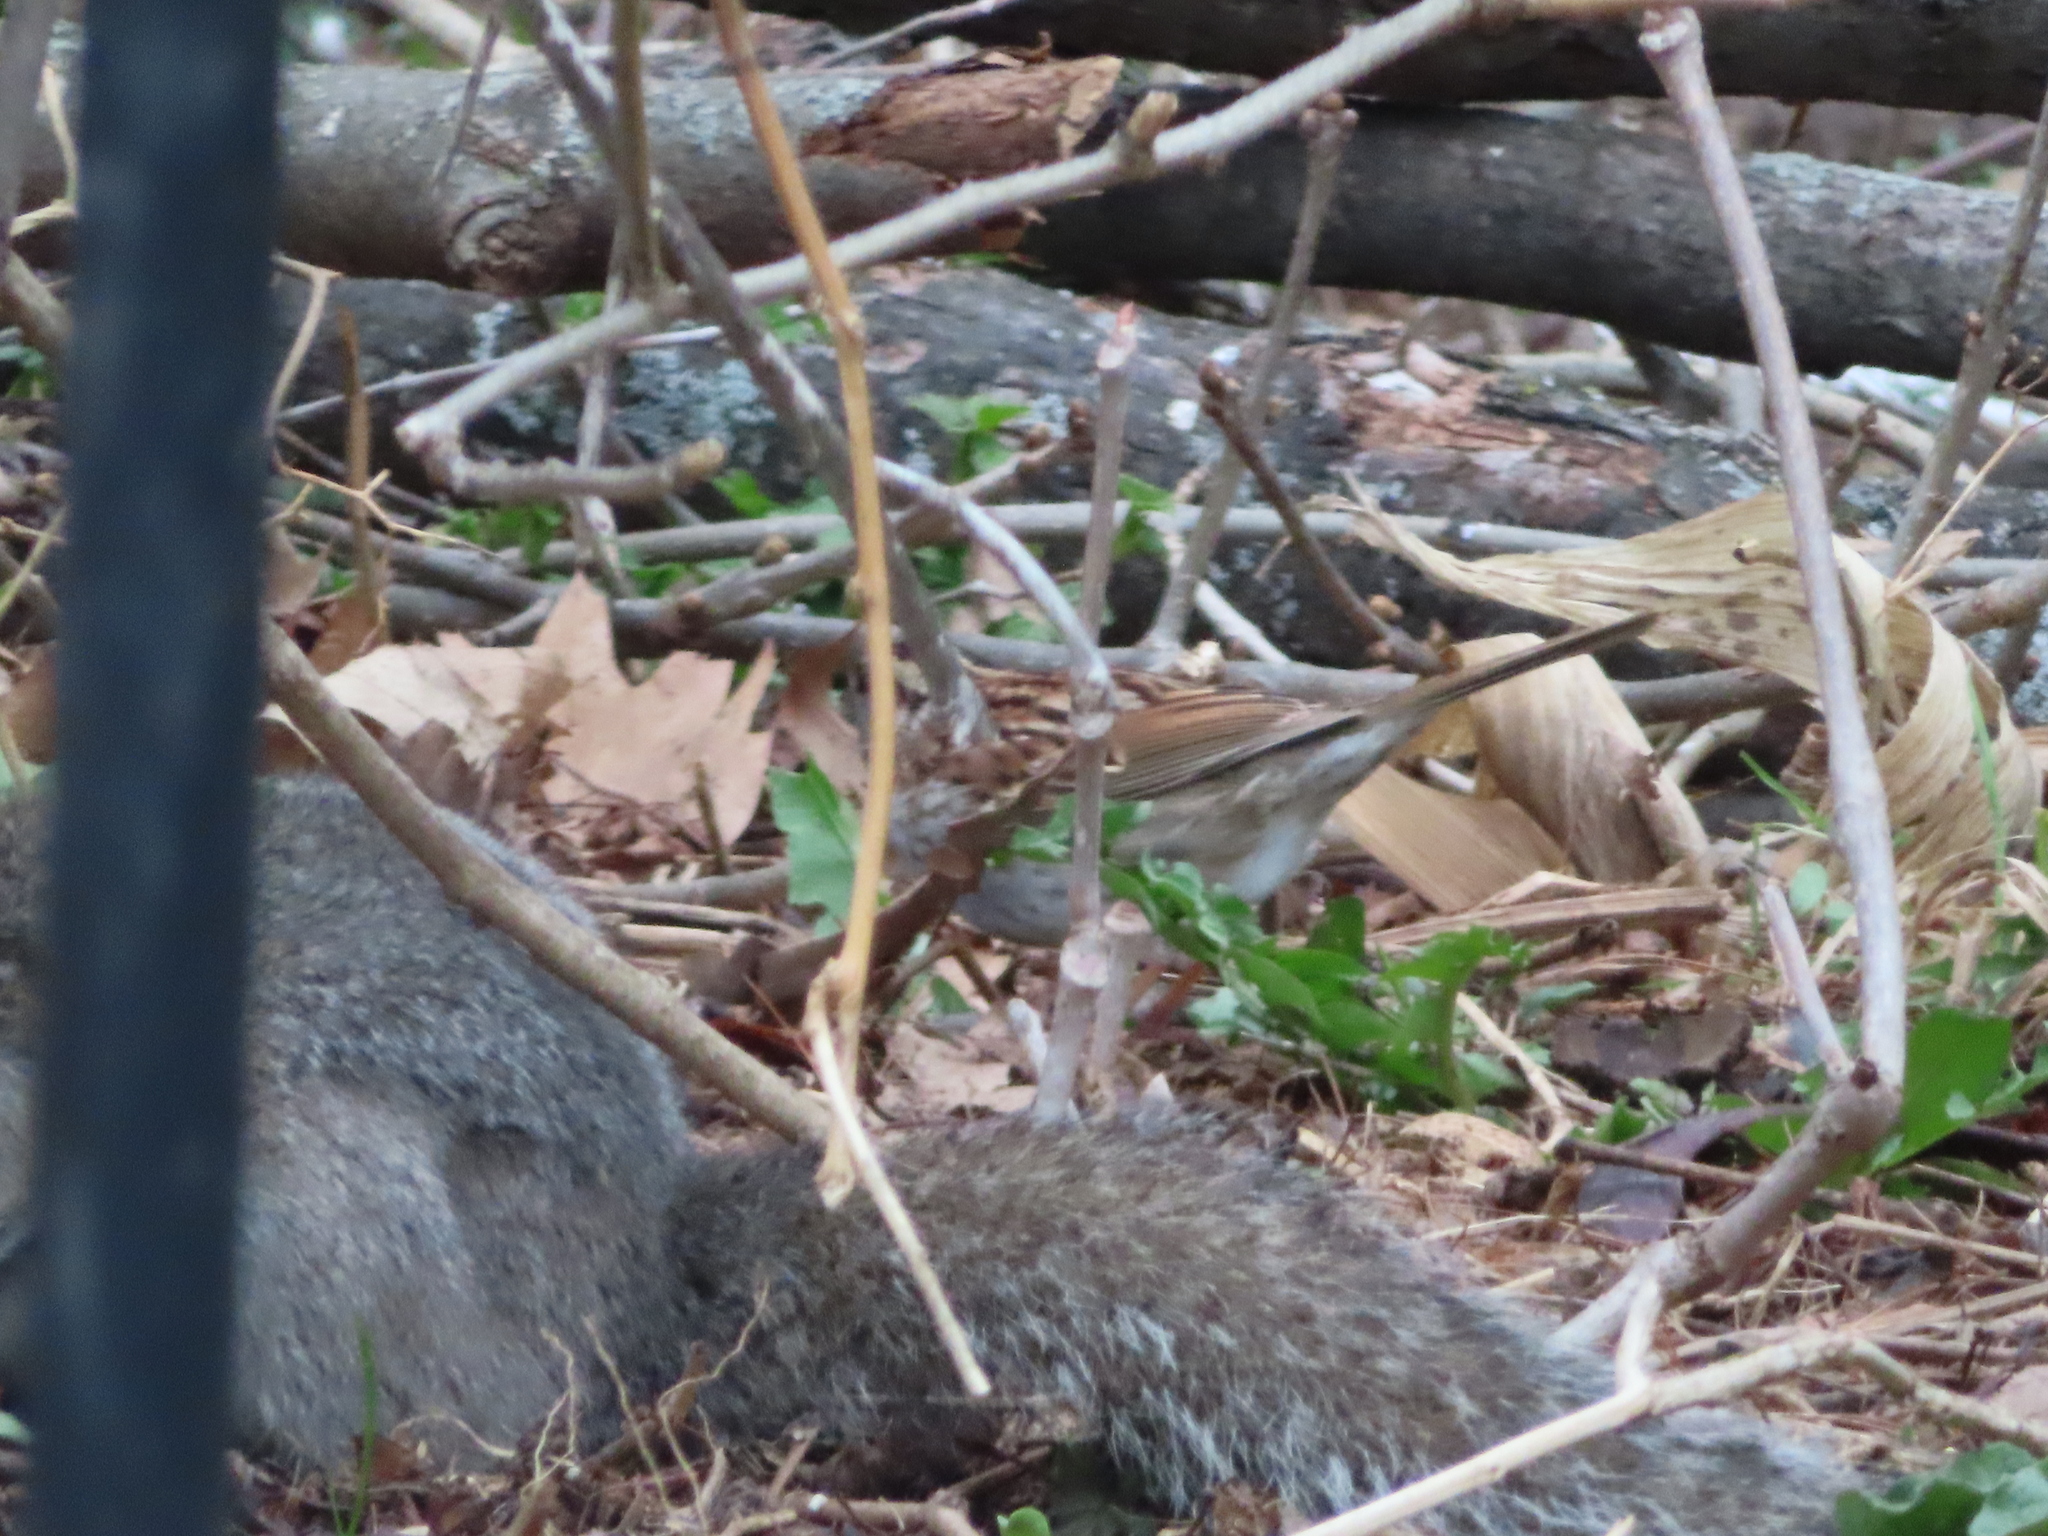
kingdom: Animalia
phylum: Chordata
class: Aves
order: Passeriformes
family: Passerellidae
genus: Zonotrichia
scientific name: Zonotrichia albicollis
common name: White-throated sparrow
